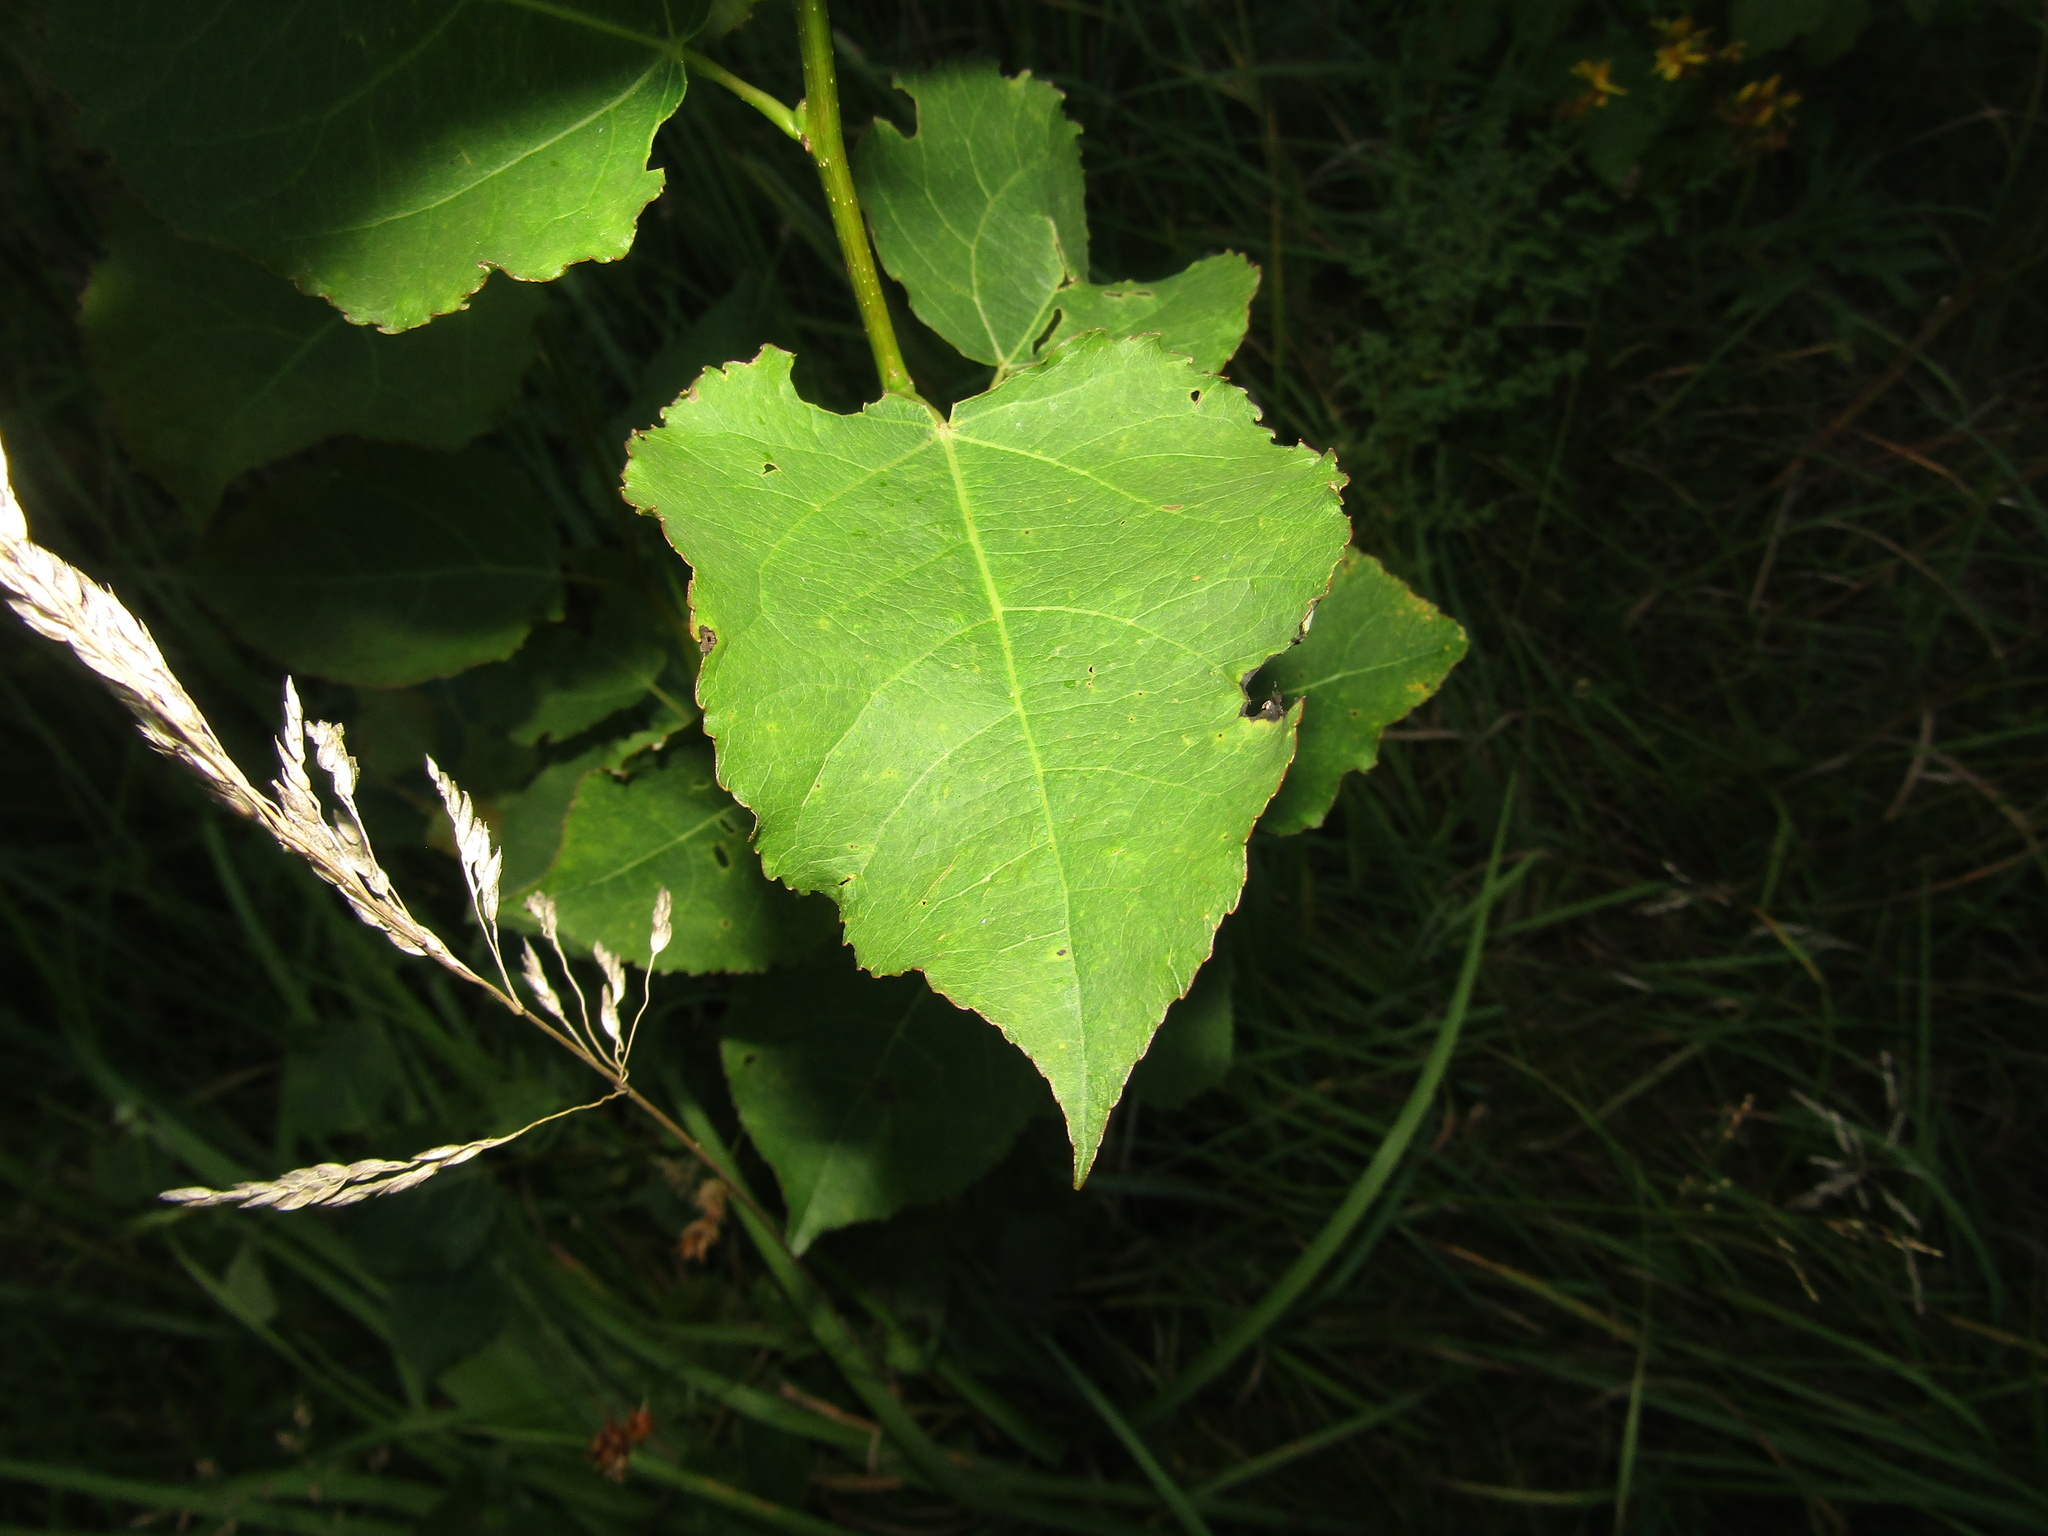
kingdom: Plantae
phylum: Tracheophyta
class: Magnoliopsida
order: Malpighiales
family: Salicaceae
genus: Populus
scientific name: Populus tremula
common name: European aspen
